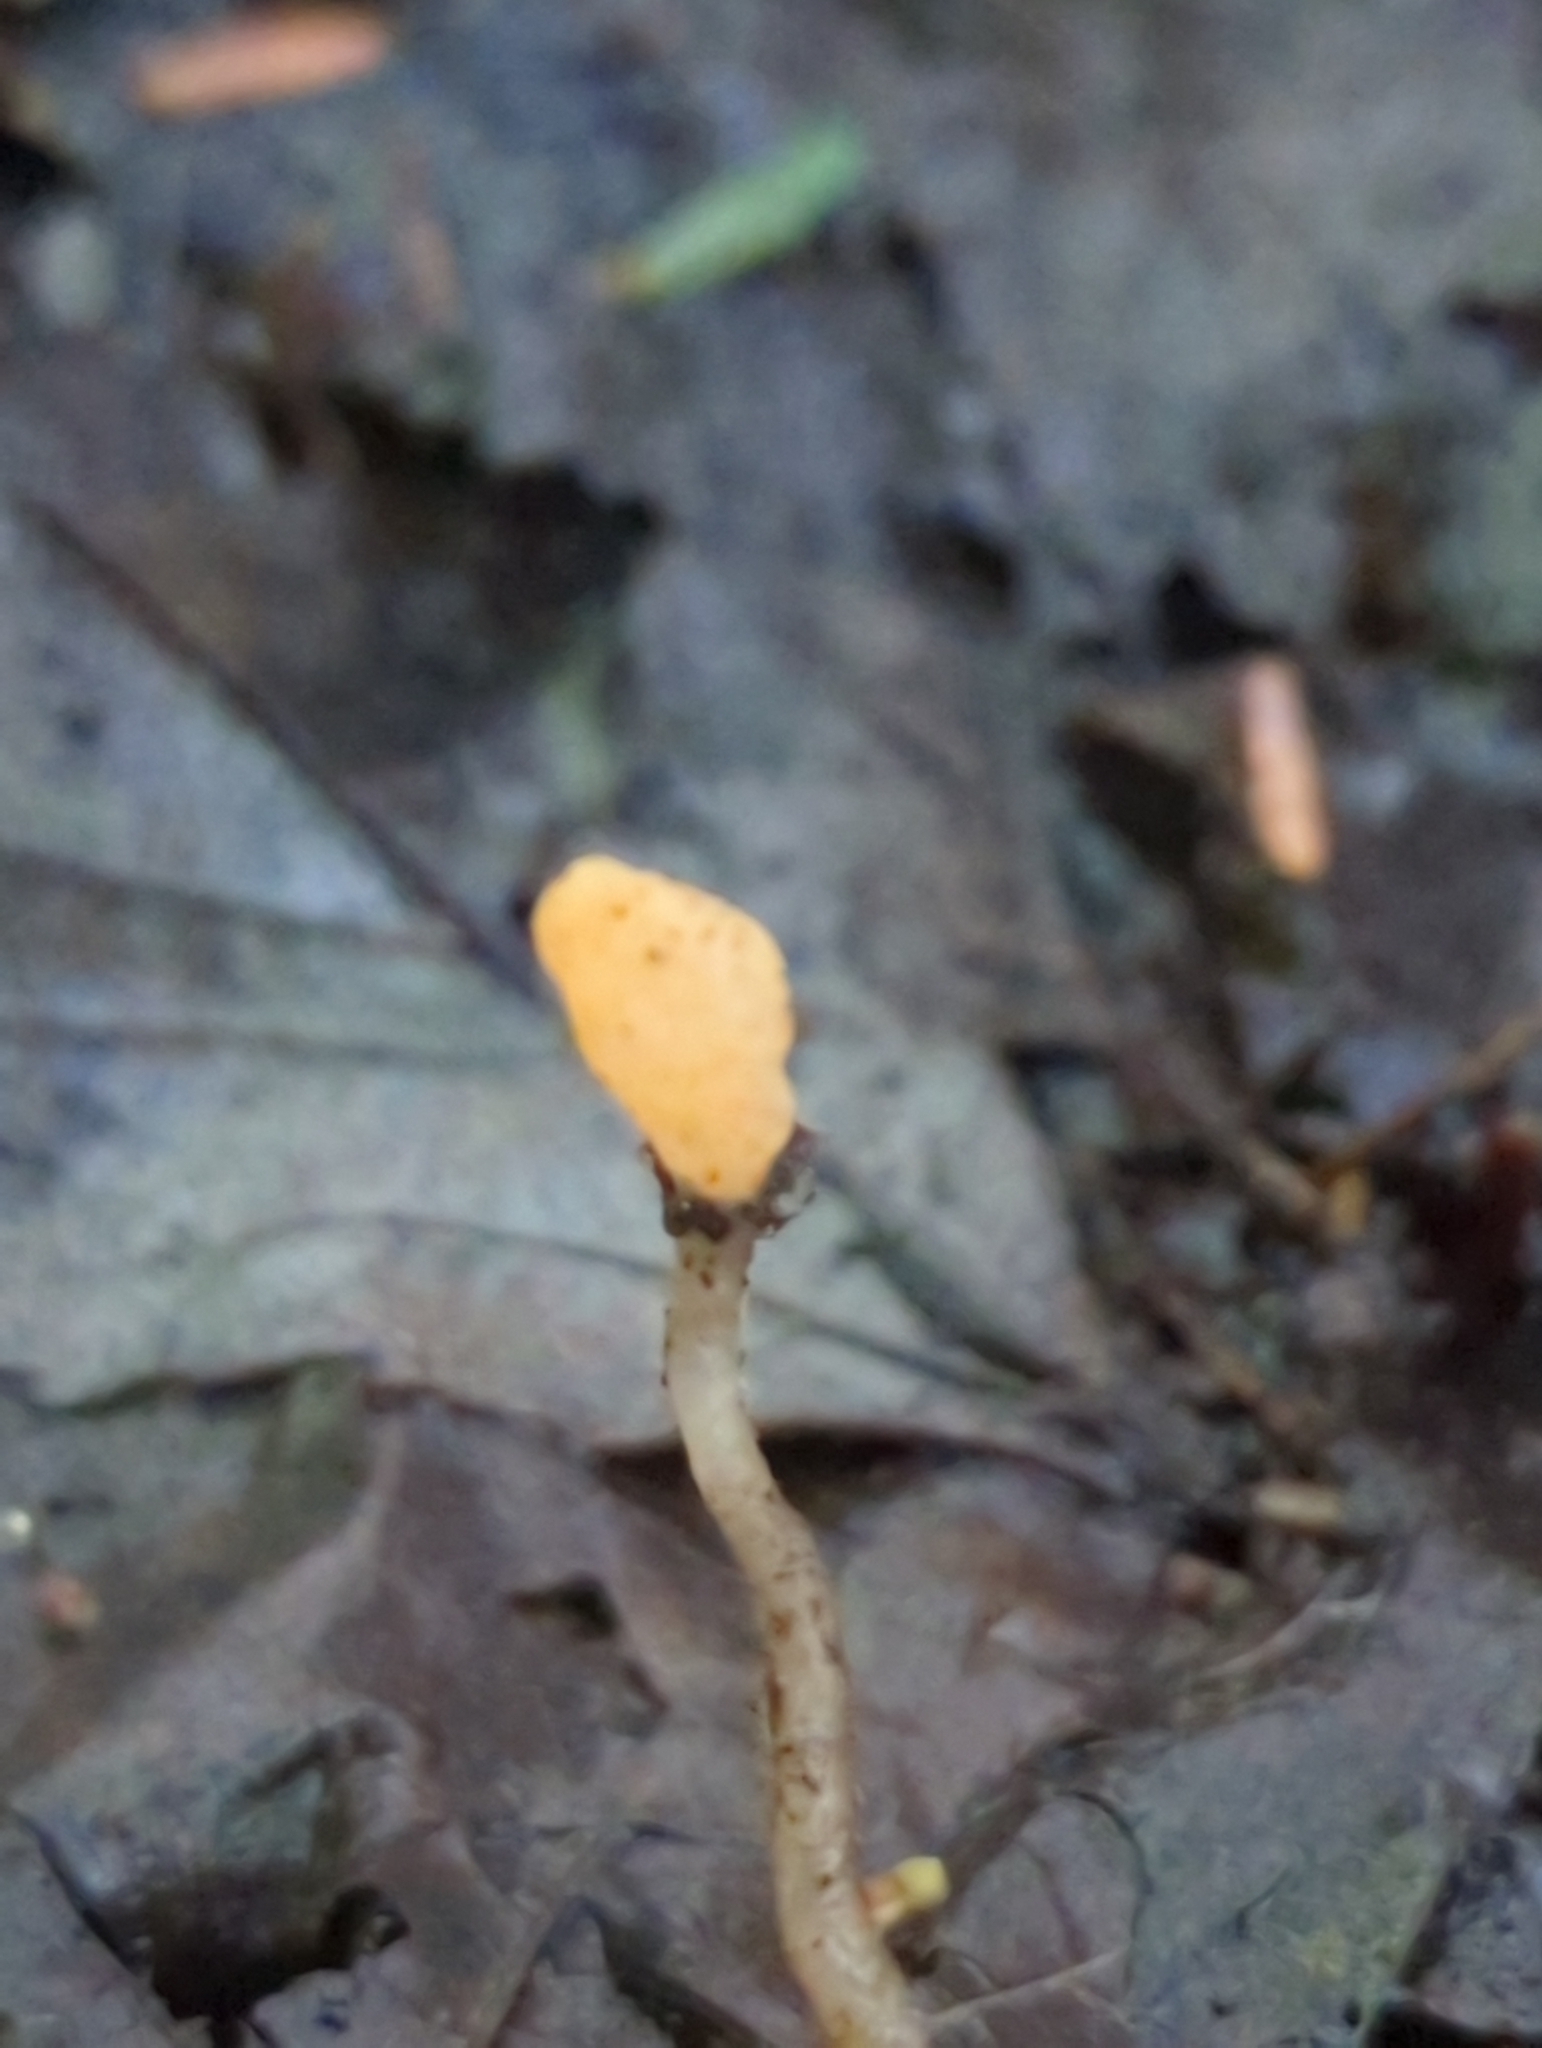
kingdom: Fungi
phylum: Ascomycota
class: Leotiomycetes
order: Helotiales
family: Sclerotiniaceae
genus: Mitrula
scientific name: Mitrula elegans
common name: Swamp beacon
